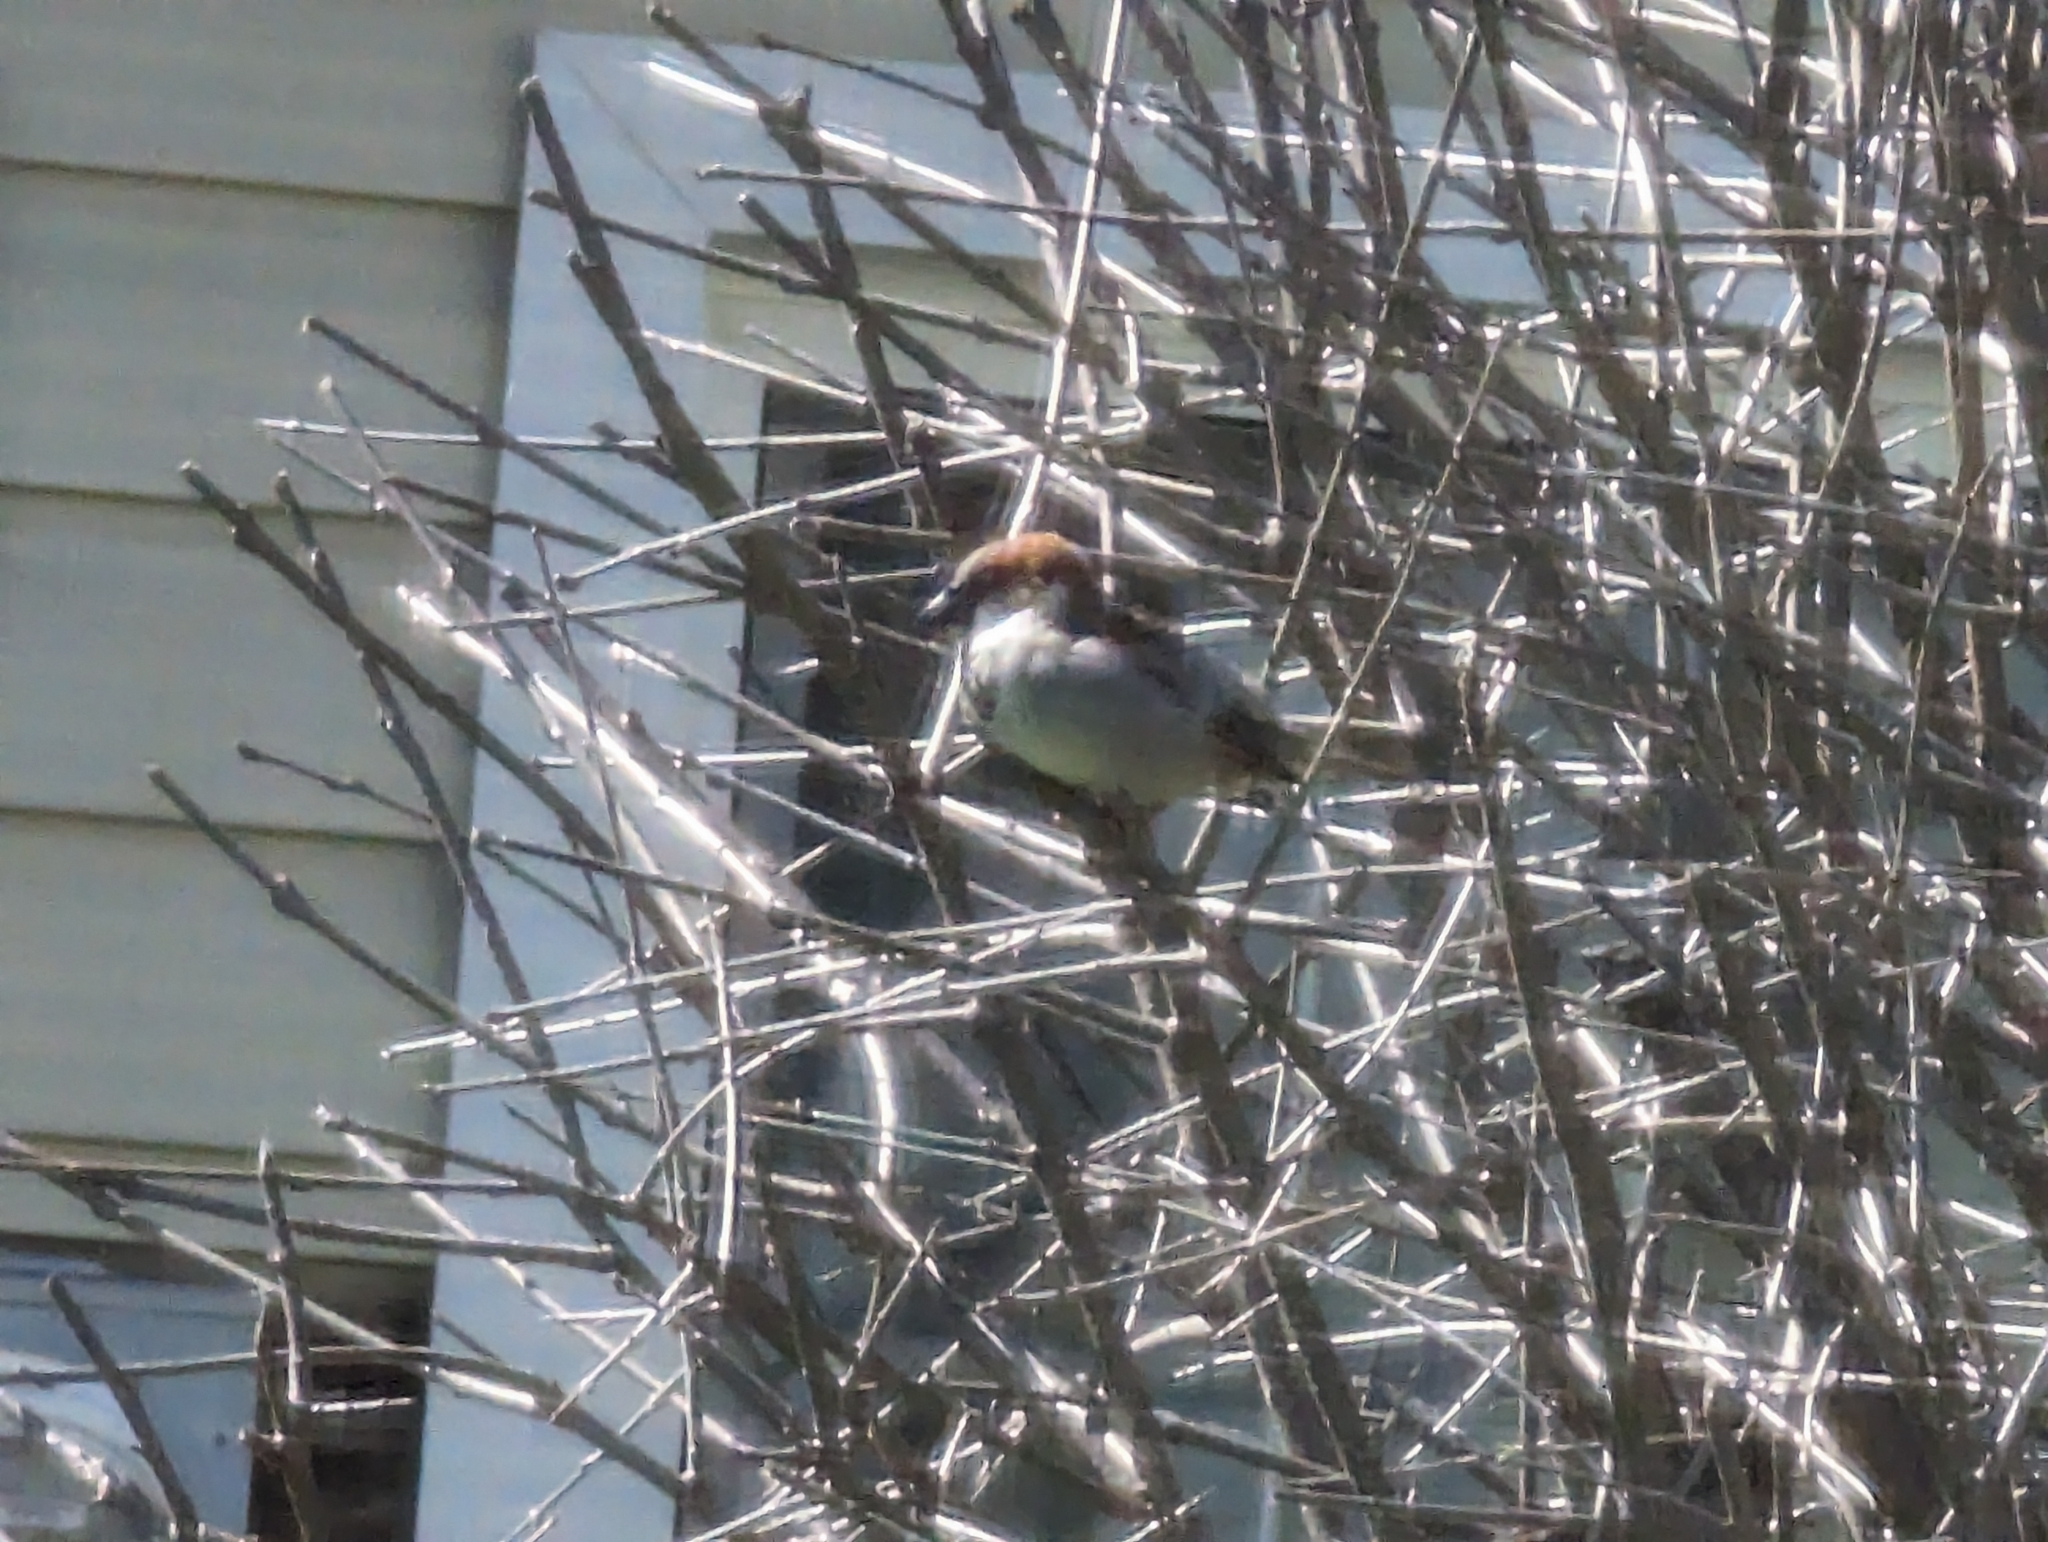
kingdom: Animalia
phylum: Chordata
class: Aves
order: Passeriformes
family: Passeridae
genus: Passer
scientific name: Passer domesticus
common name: House sparrow
